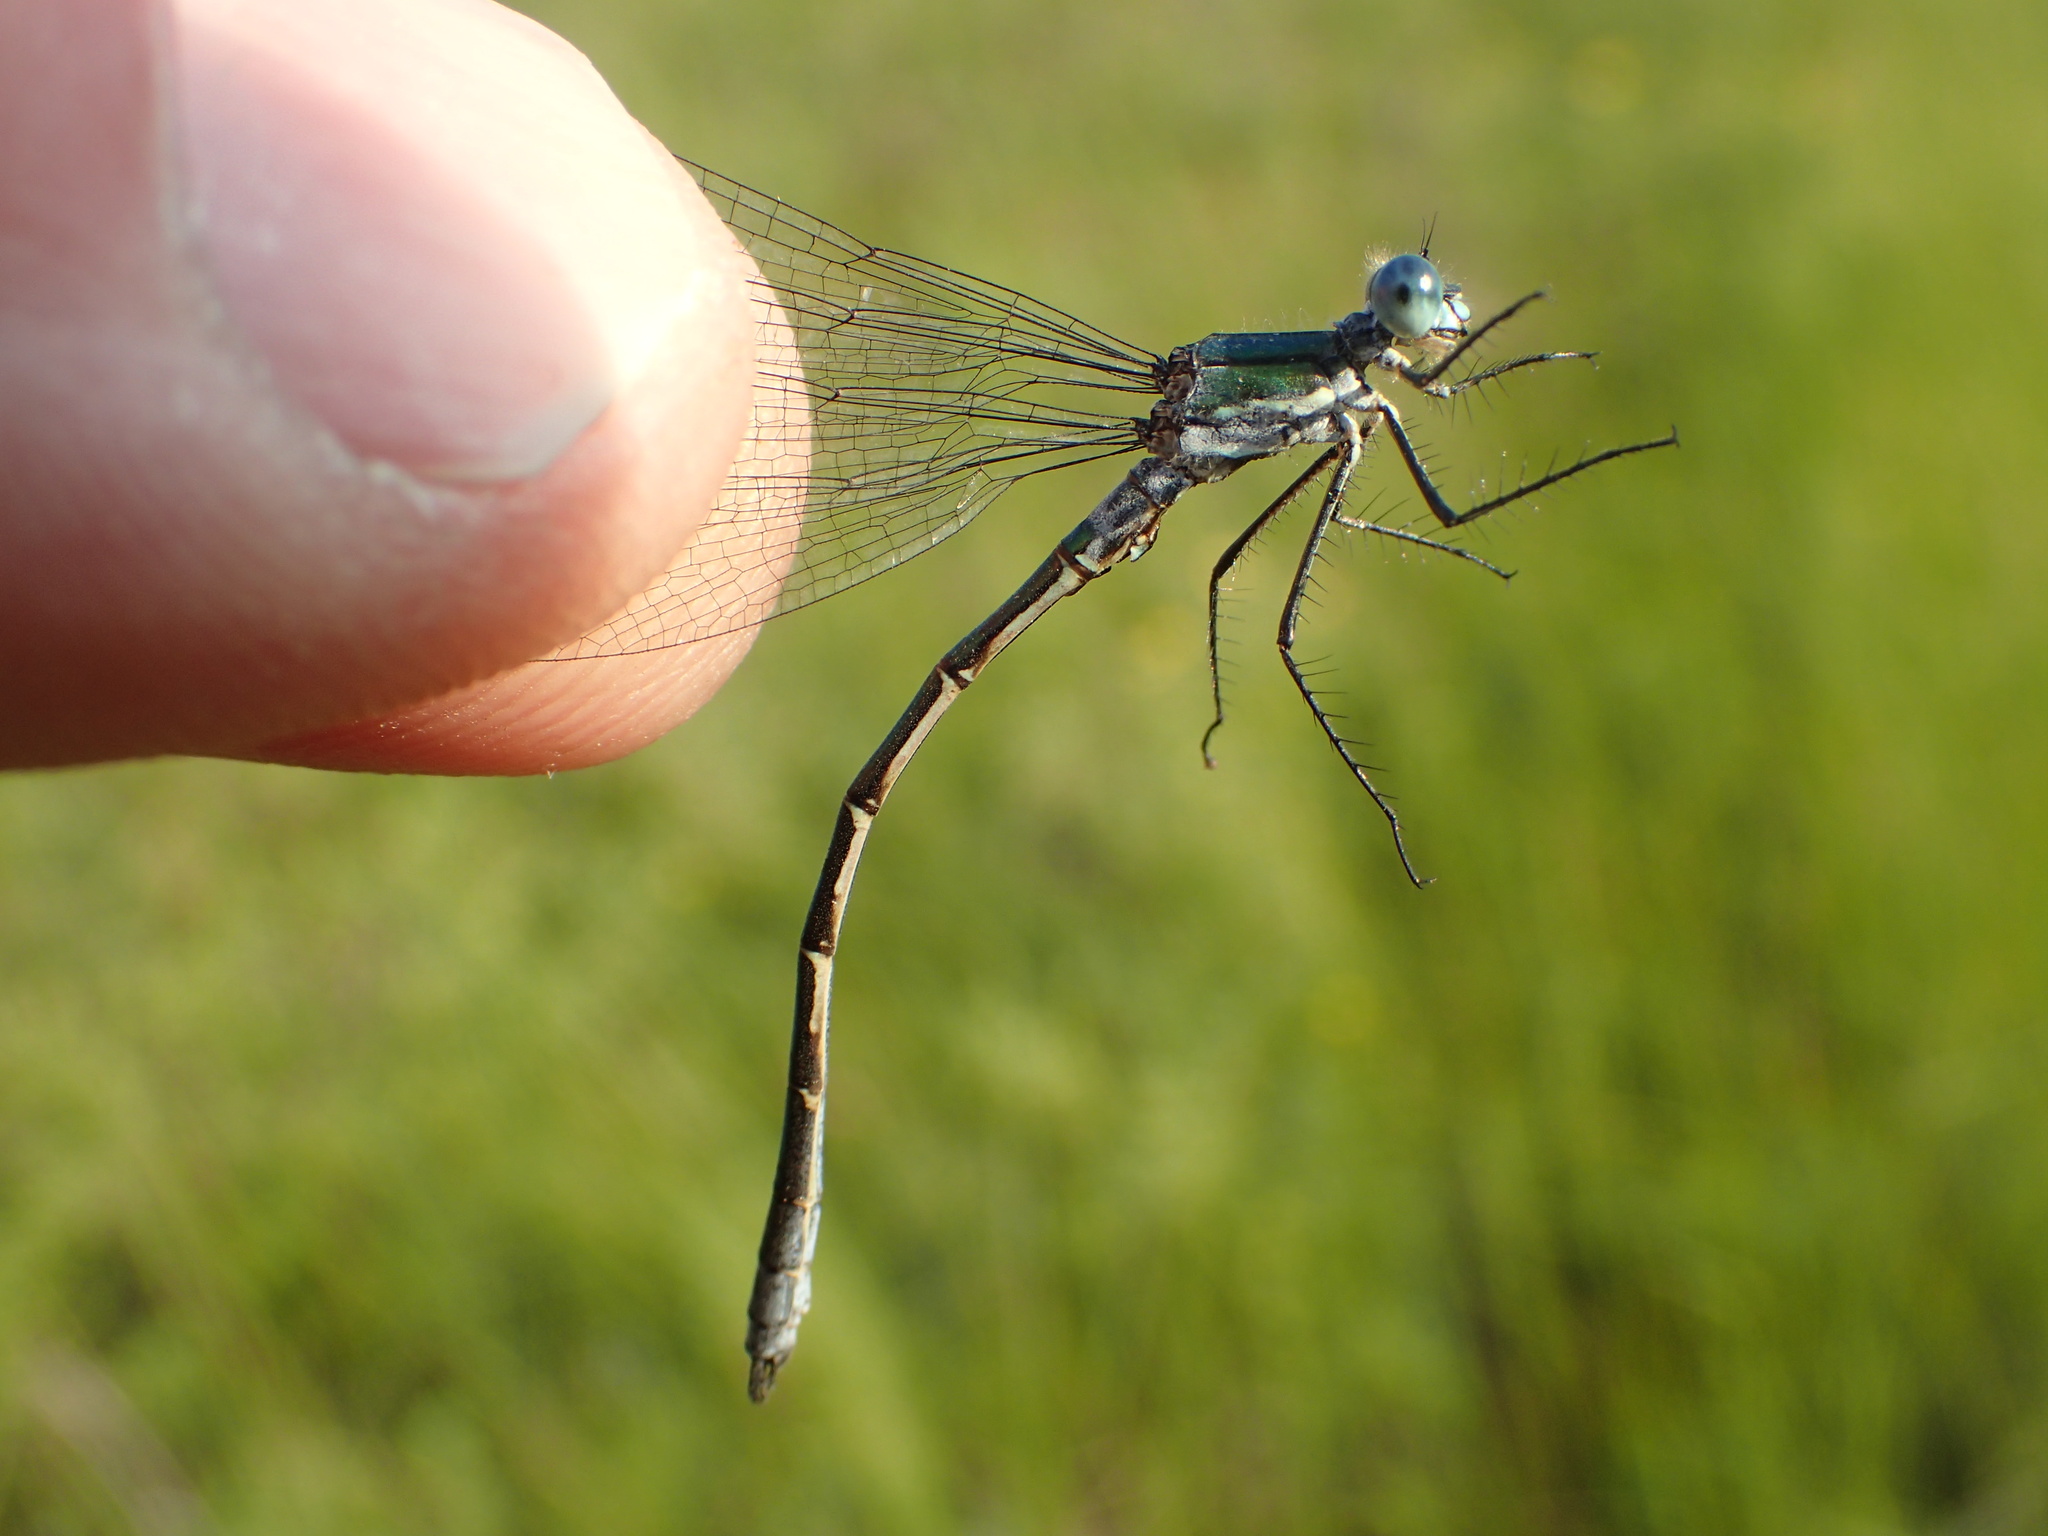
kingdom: Animalia
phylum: Arthropoda
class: Insecta
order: Odonata
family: Lestidae
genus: Lestes
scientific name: Lestes dryas
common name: Scarce emerald damselfly
